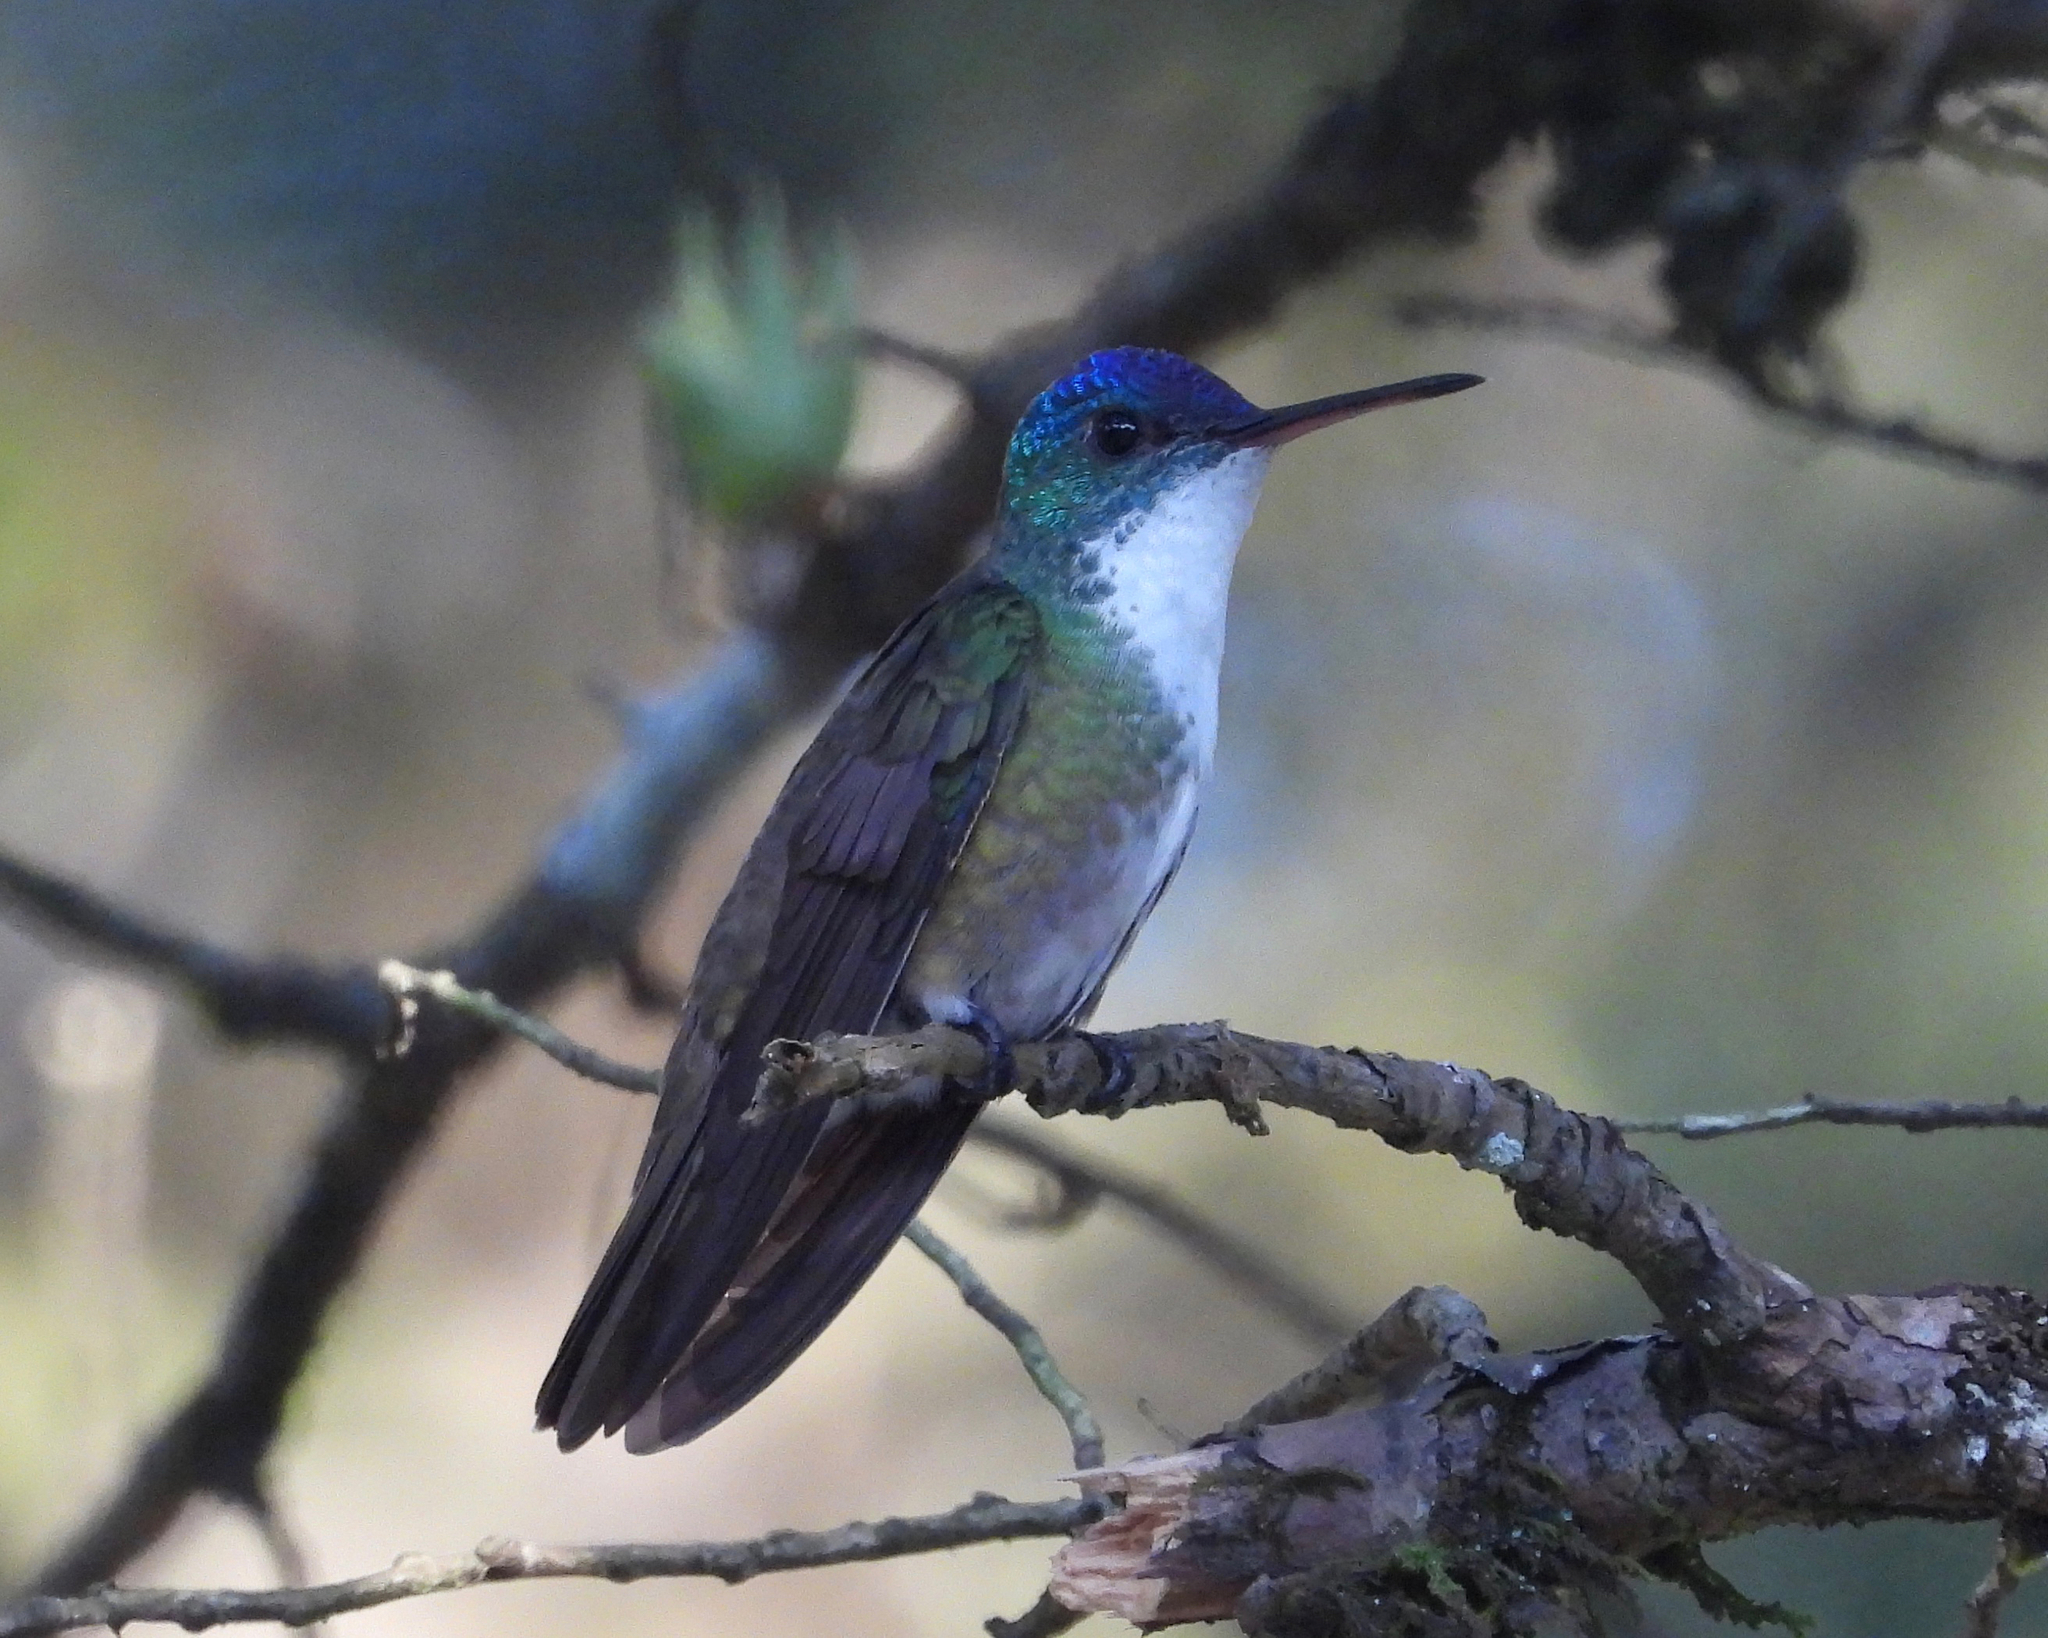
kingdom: Animalia
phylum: Chordata
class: Aves
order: Apodiformes
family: Trochilidae
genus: Saucerottia
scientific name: Saucerottia cyanocephala
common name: Azure-crowned hummingbird
